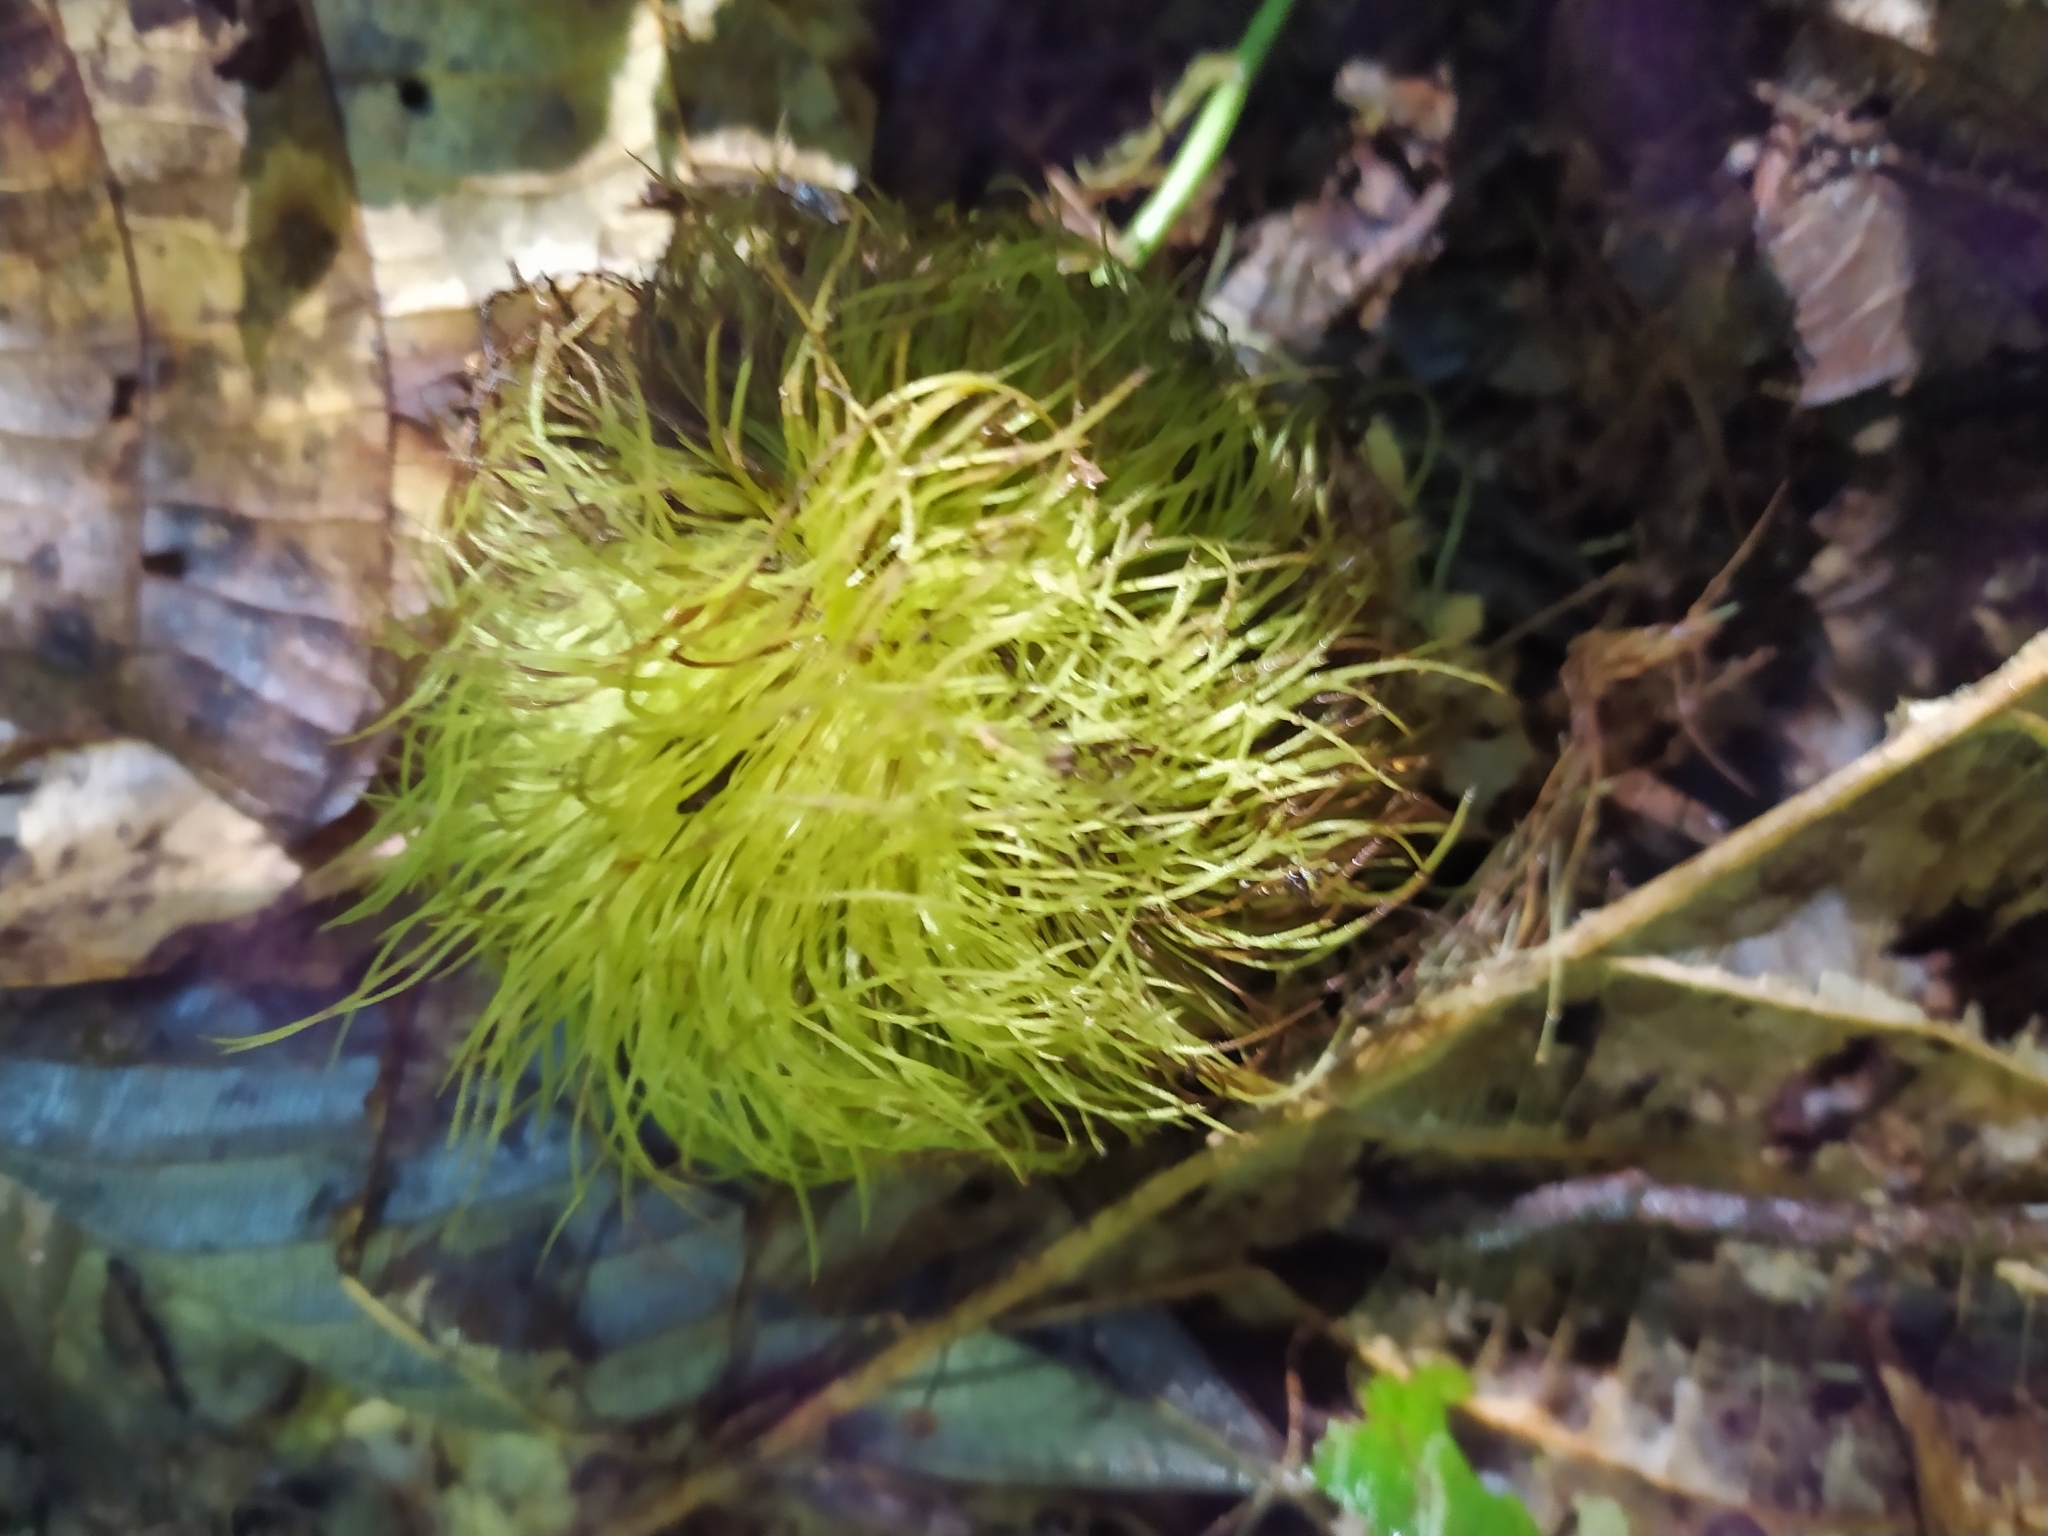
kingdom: Plantae
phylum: Tracheophyta
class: Magnoliopsida
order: Oxalidales
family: Elaeocarpaceae
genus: Sloanea
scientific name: Sloanea grandiflora
